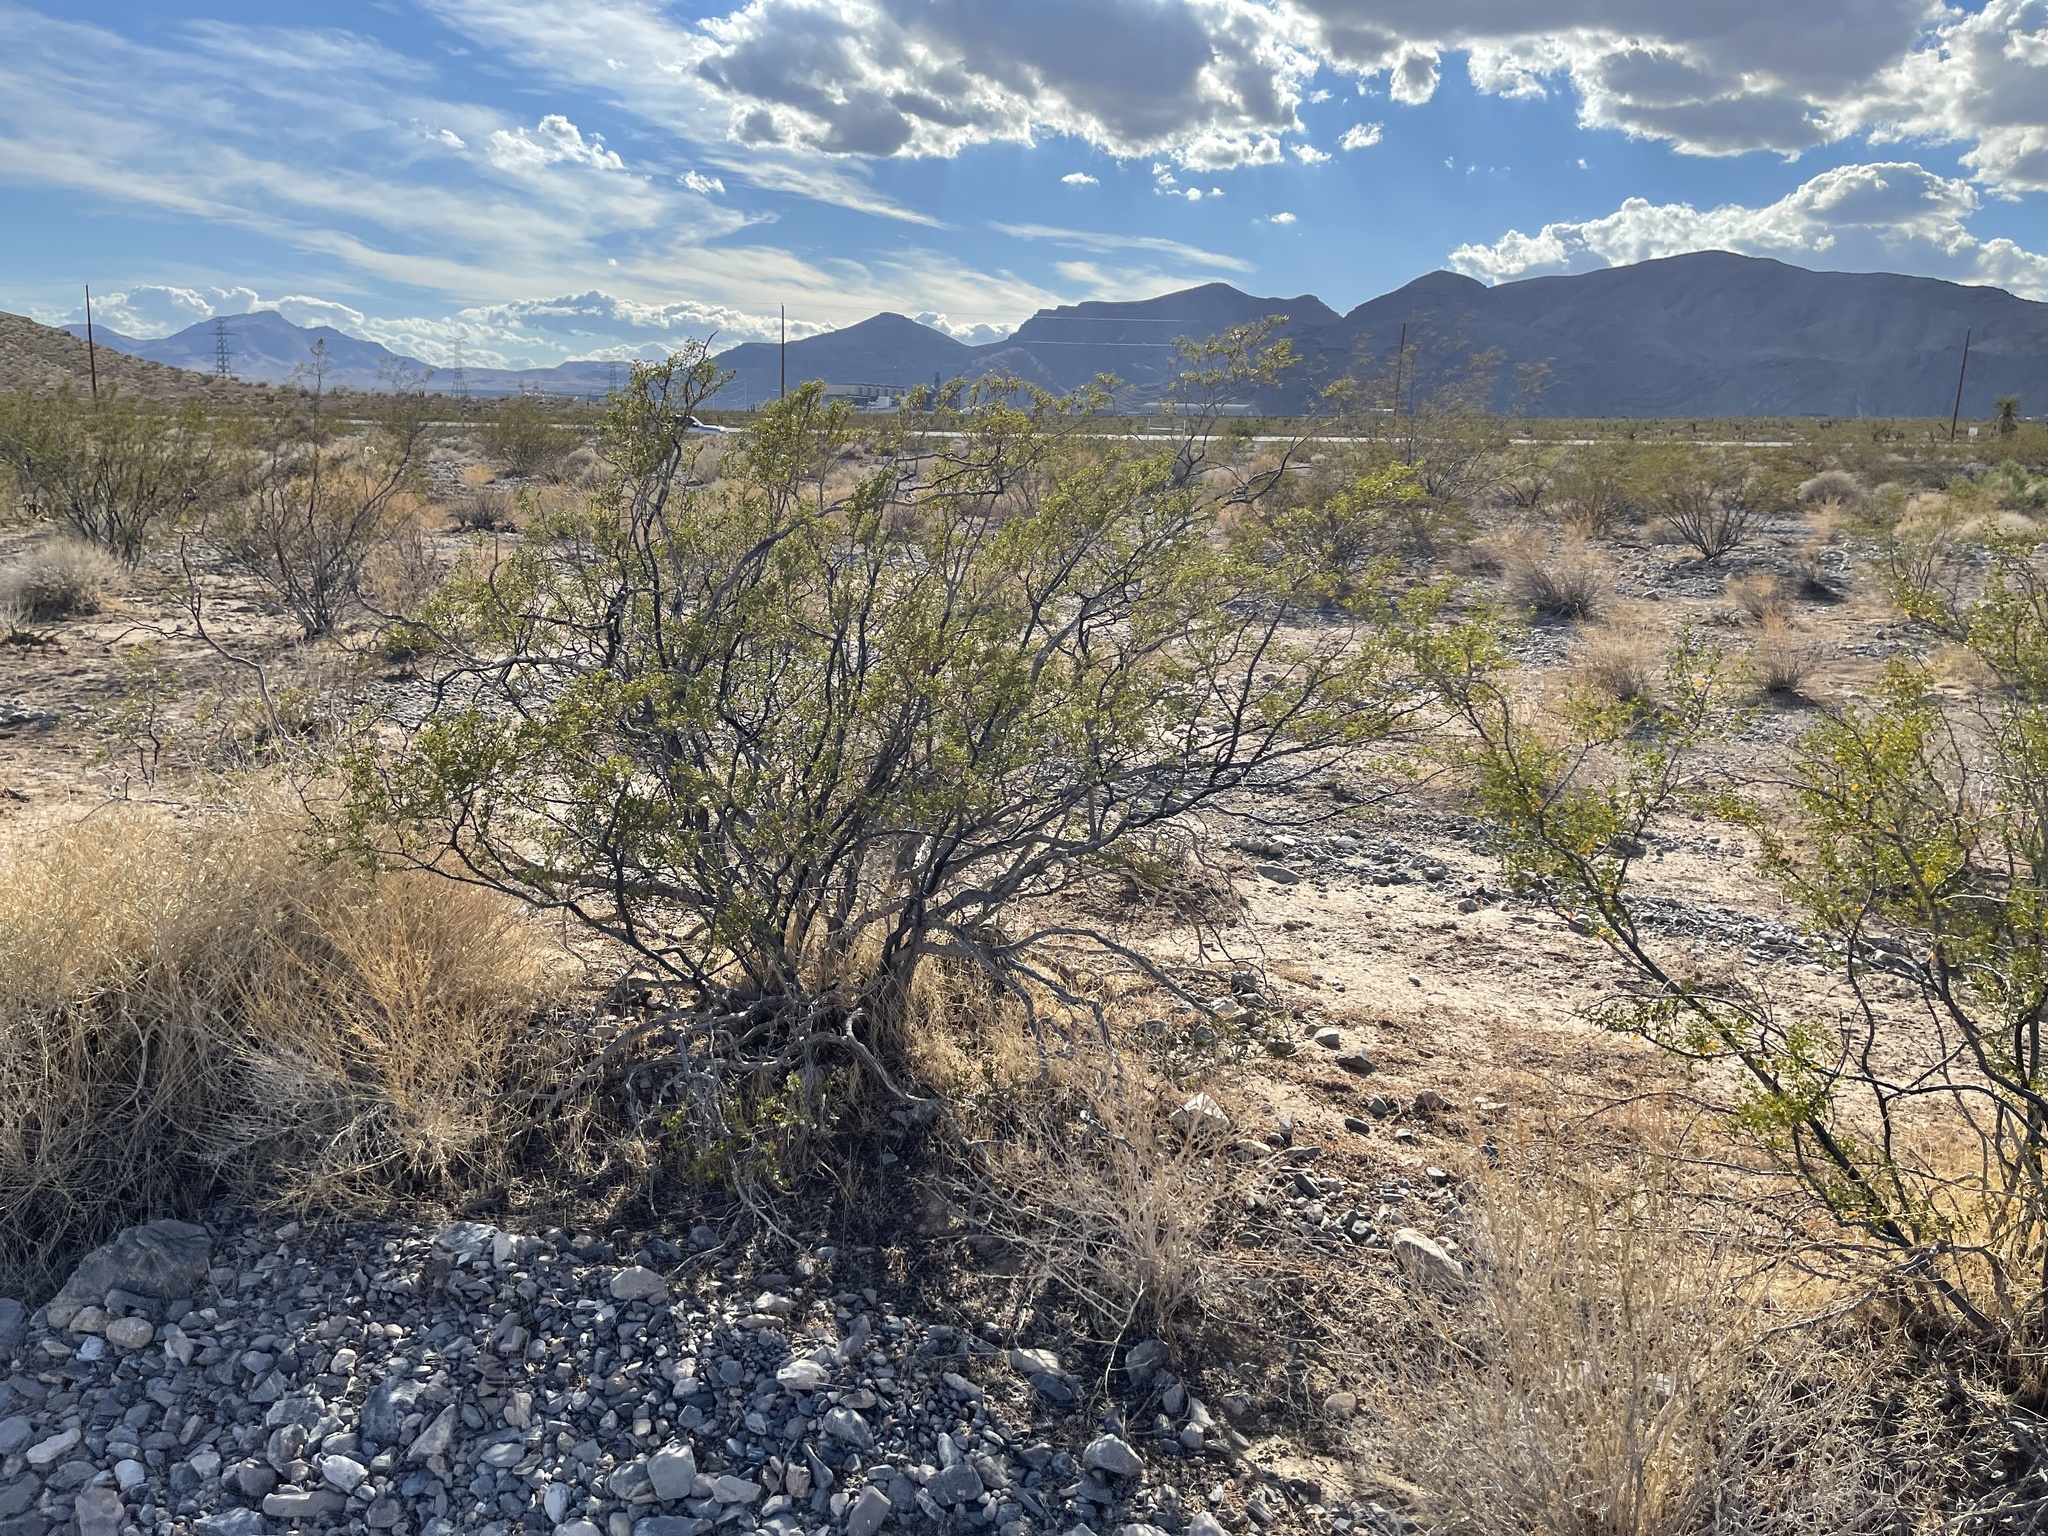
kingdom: Plantae
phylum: Tracheophyta
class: Magnoliopsida
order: Zygophyllales
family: Zygophyllaceae
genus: Larrea
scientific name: Larrea tridentata
